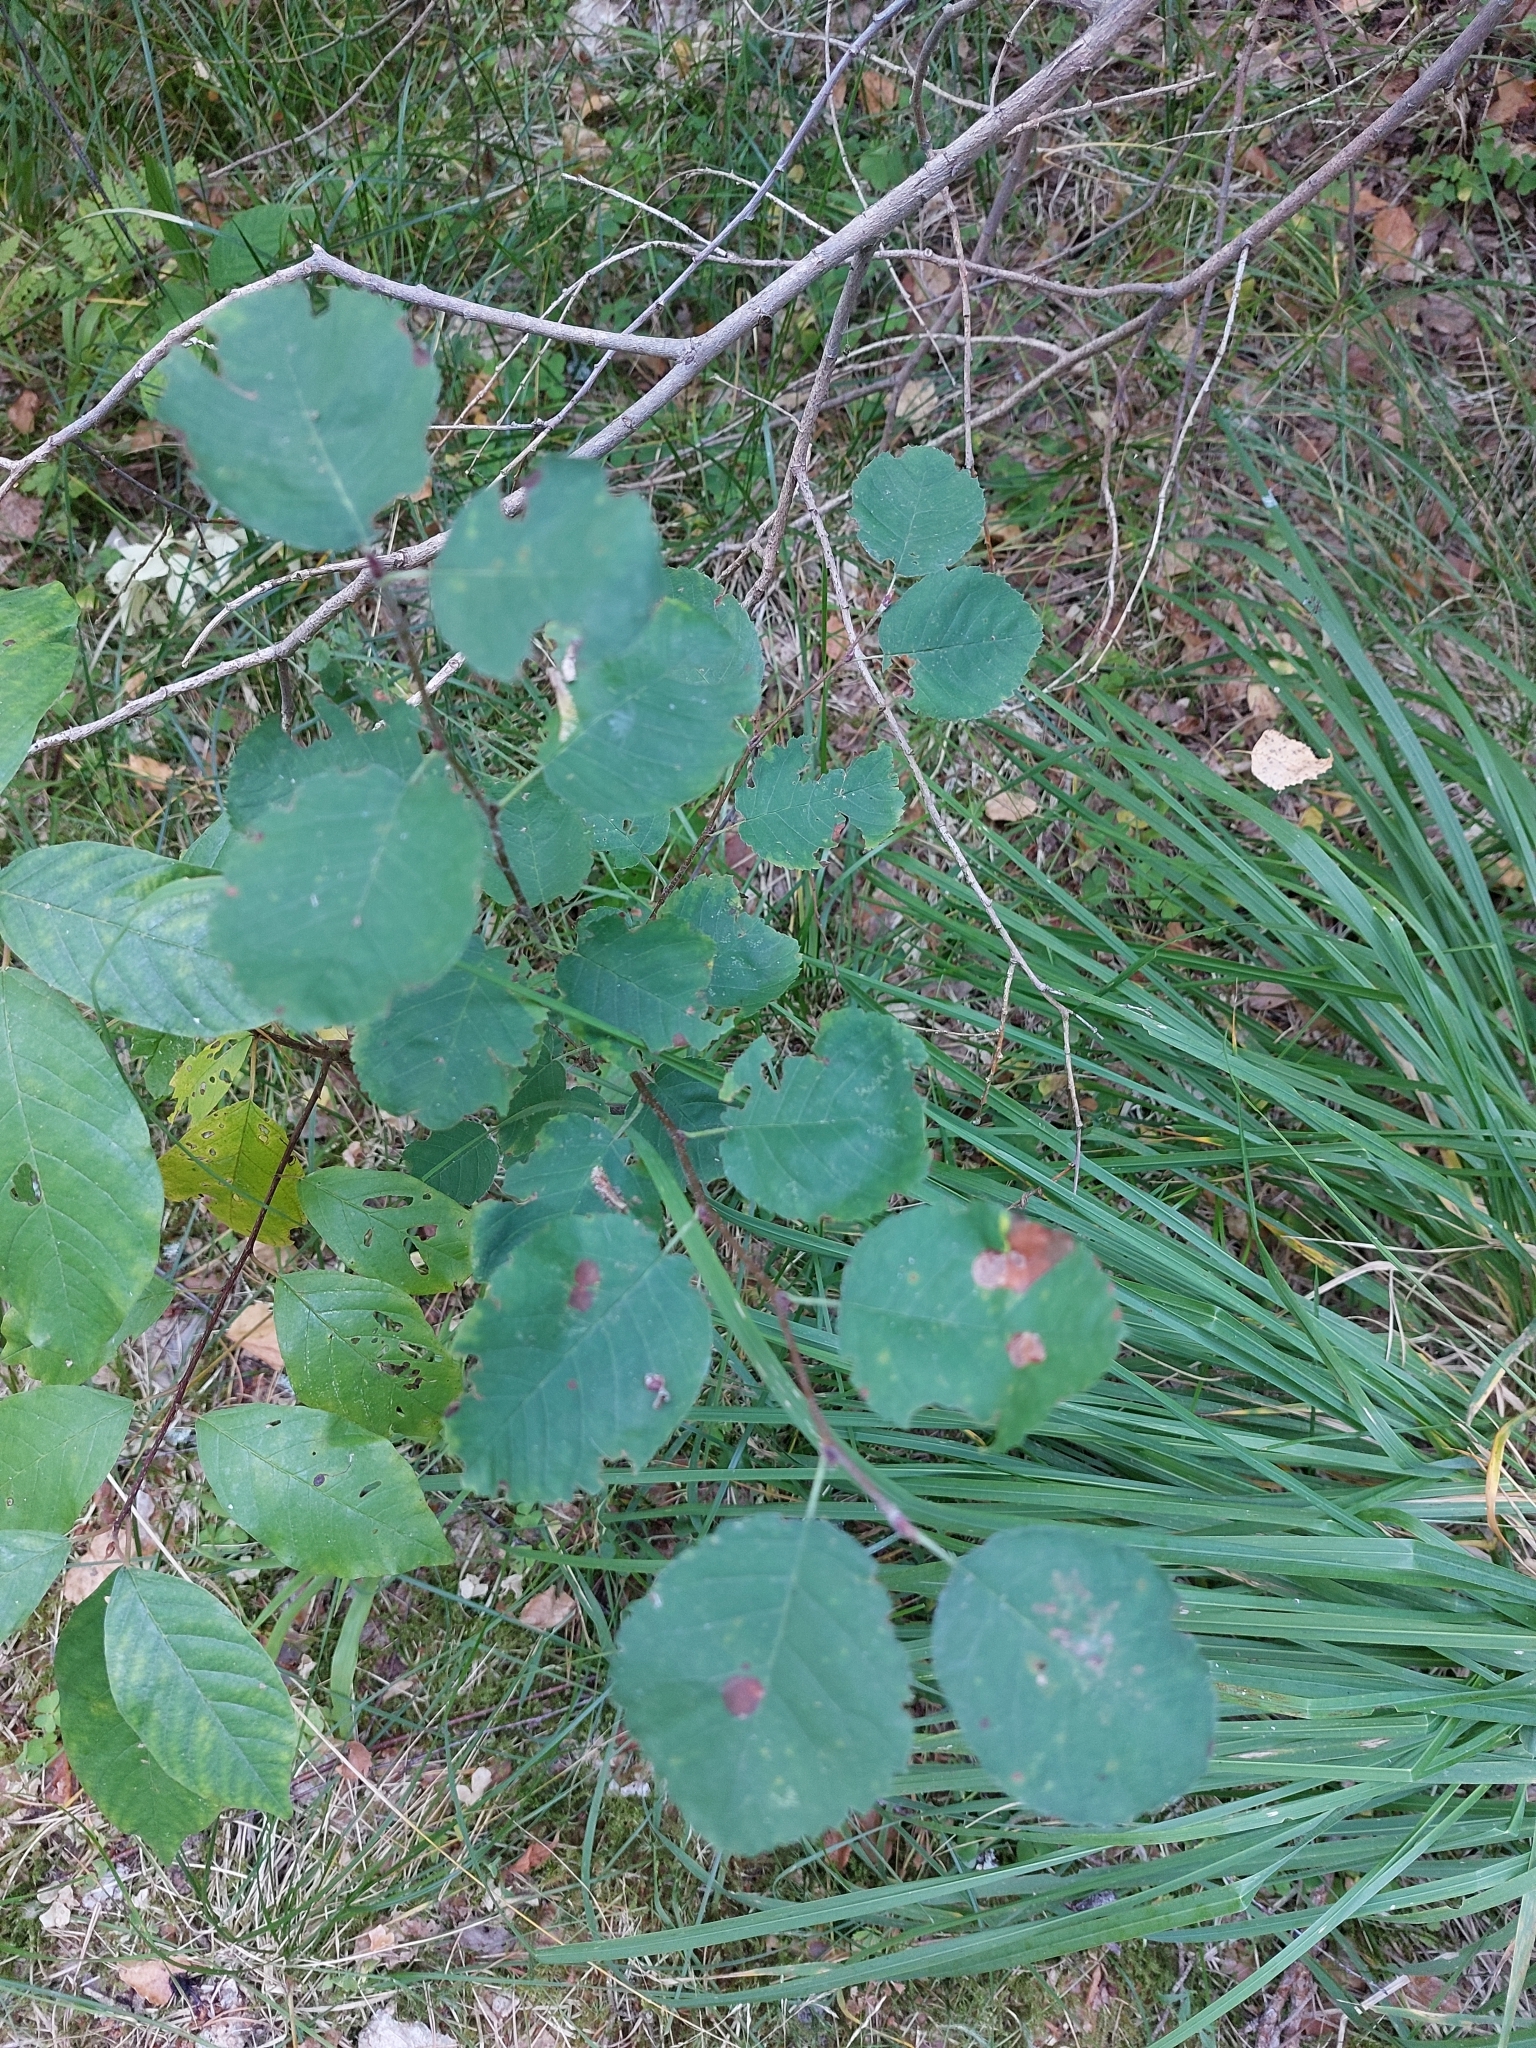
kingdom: Plantae
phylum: Tracheophyta
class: Magnoliopsida
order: Rosales
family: Rosaceae
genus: Amelanchier
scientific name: Amelanchier
